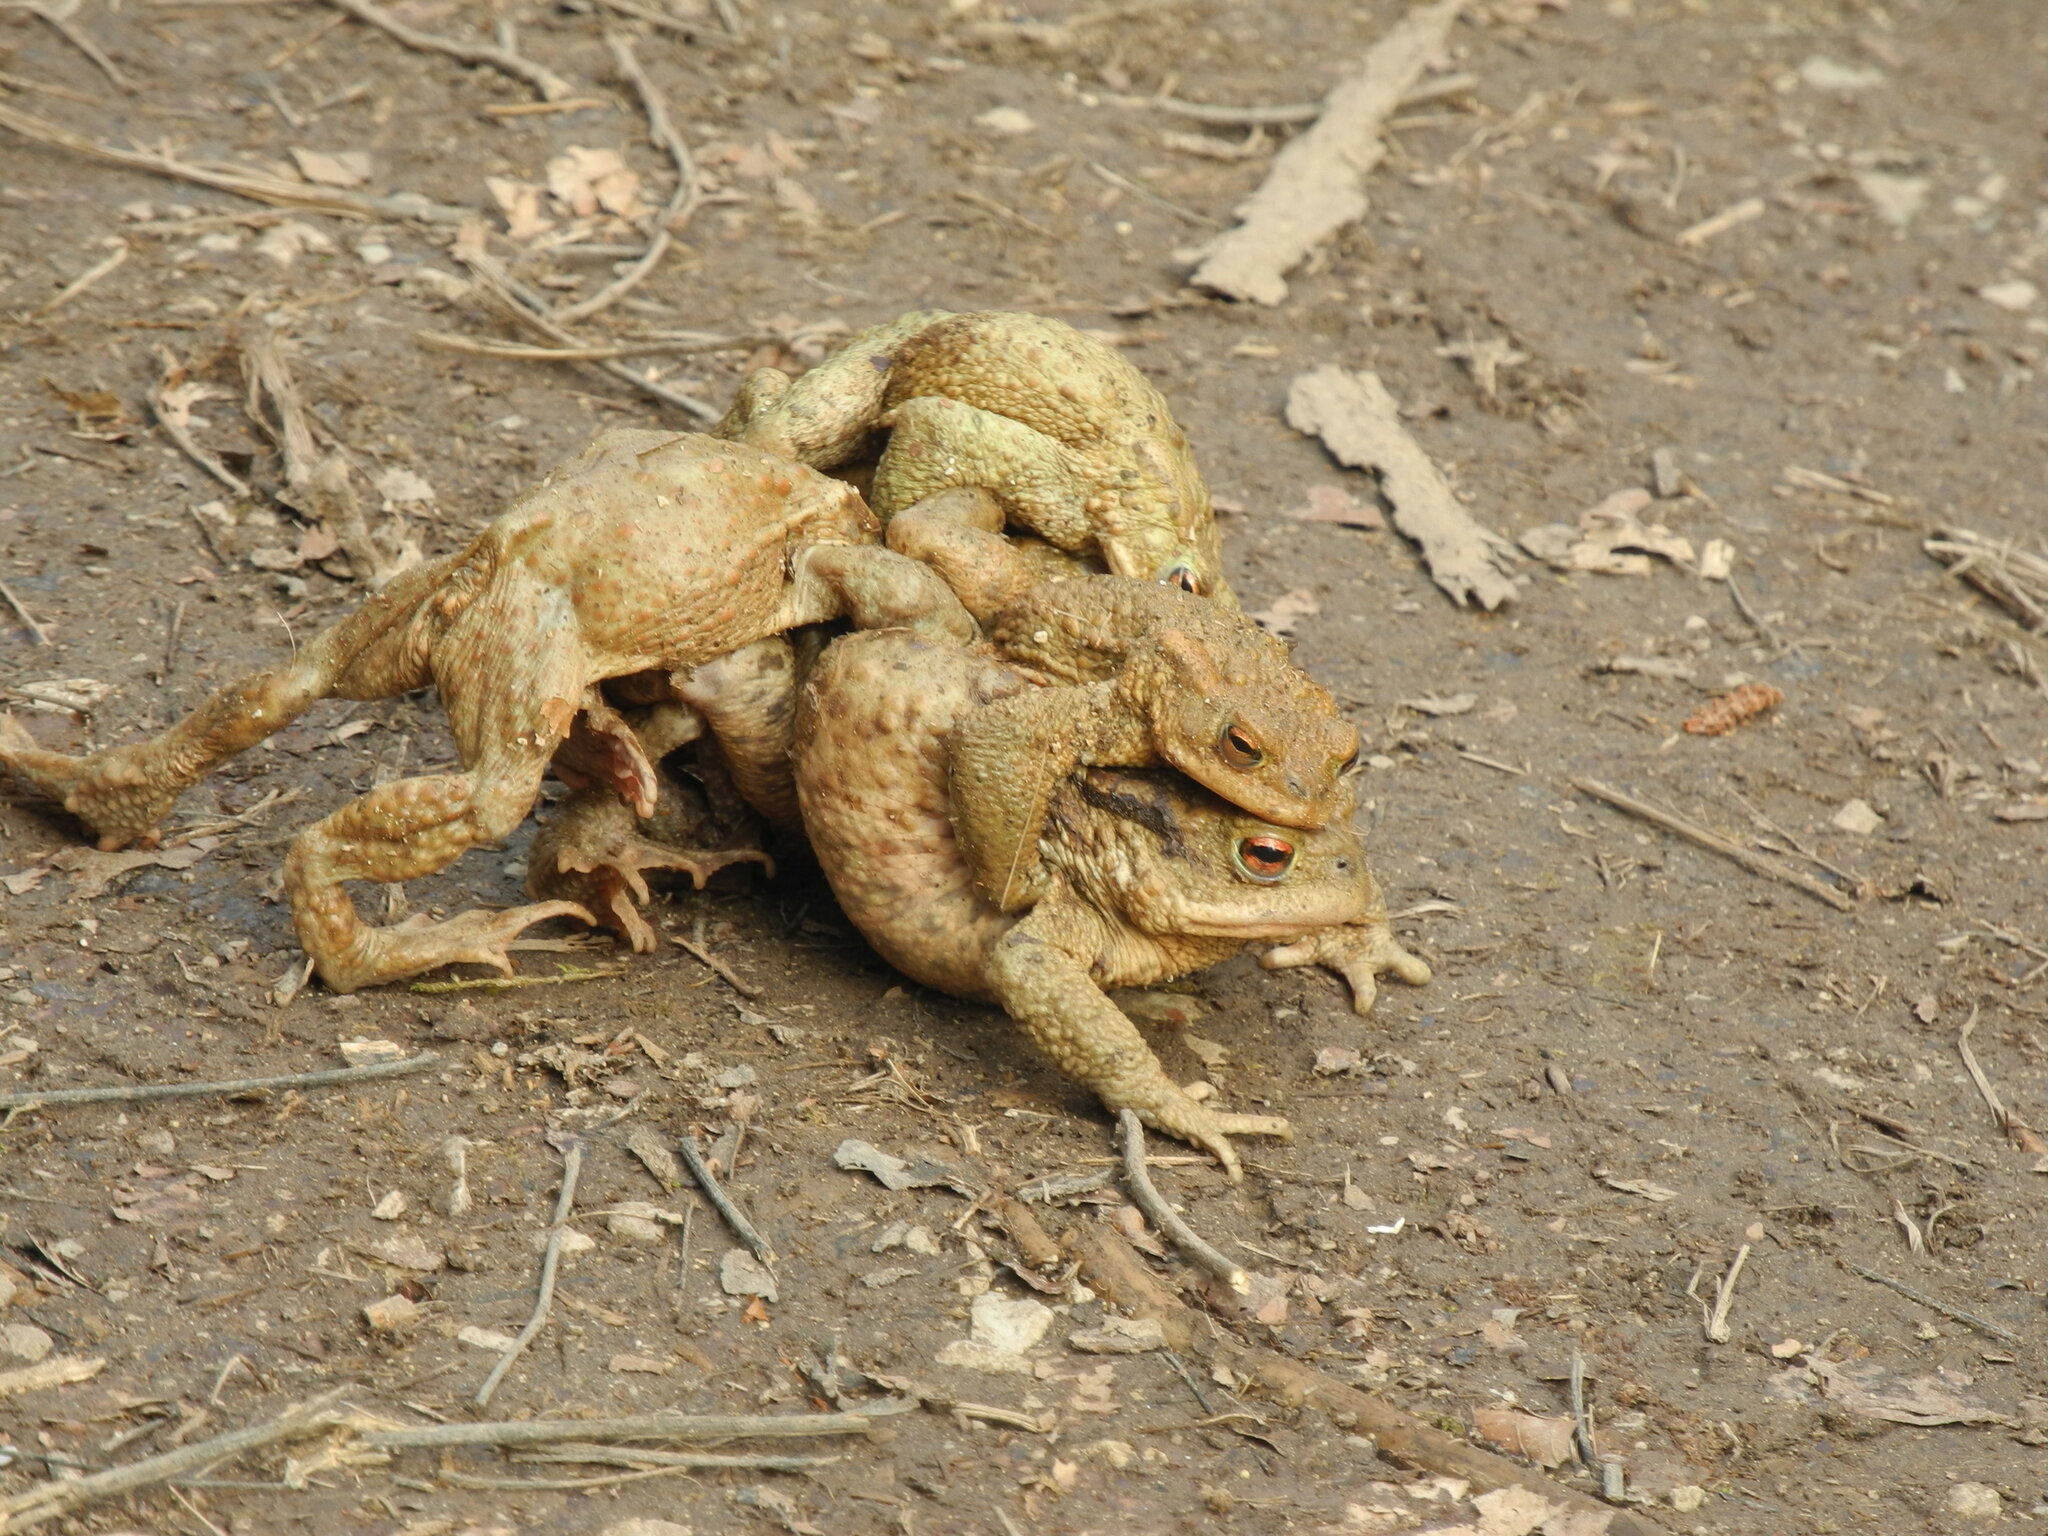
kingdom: Animalia
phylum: Chordata
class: Amphibia
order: Anura
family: Bufonidae
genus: Bufo
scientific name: Bufo bufo
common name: Common toad
